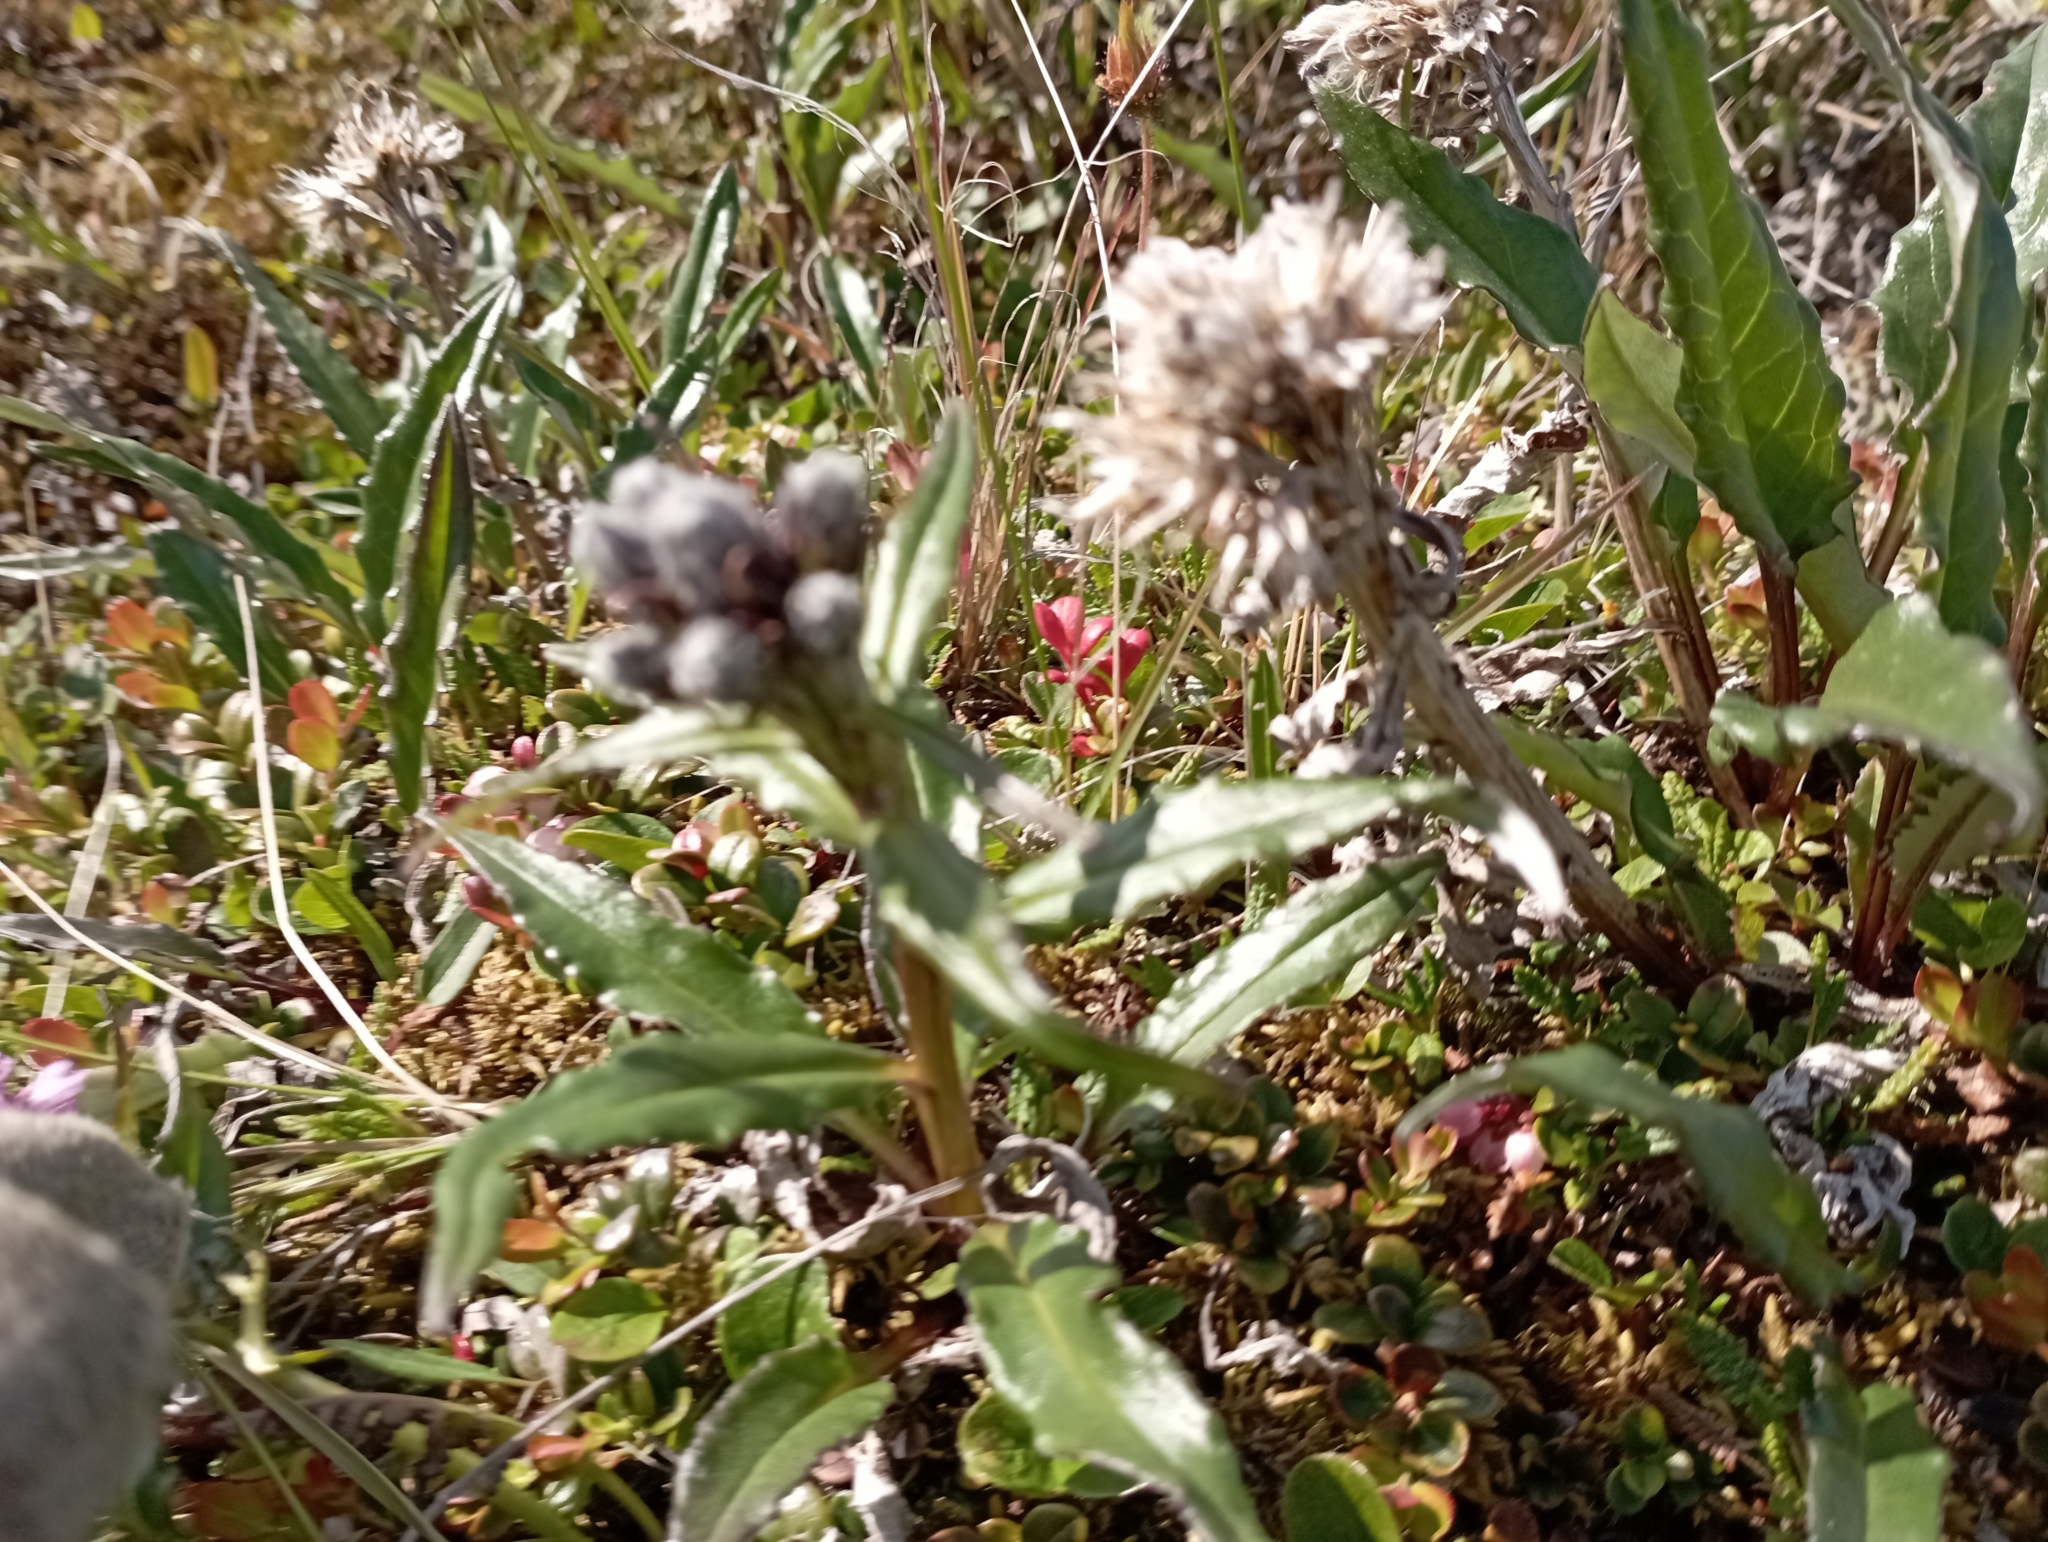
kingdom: Plantae
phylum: Tracheophyta
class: Magnoliopsida
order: Asterales
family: Asteraceae
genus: Saussurea
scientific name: Saussurea tilesii
